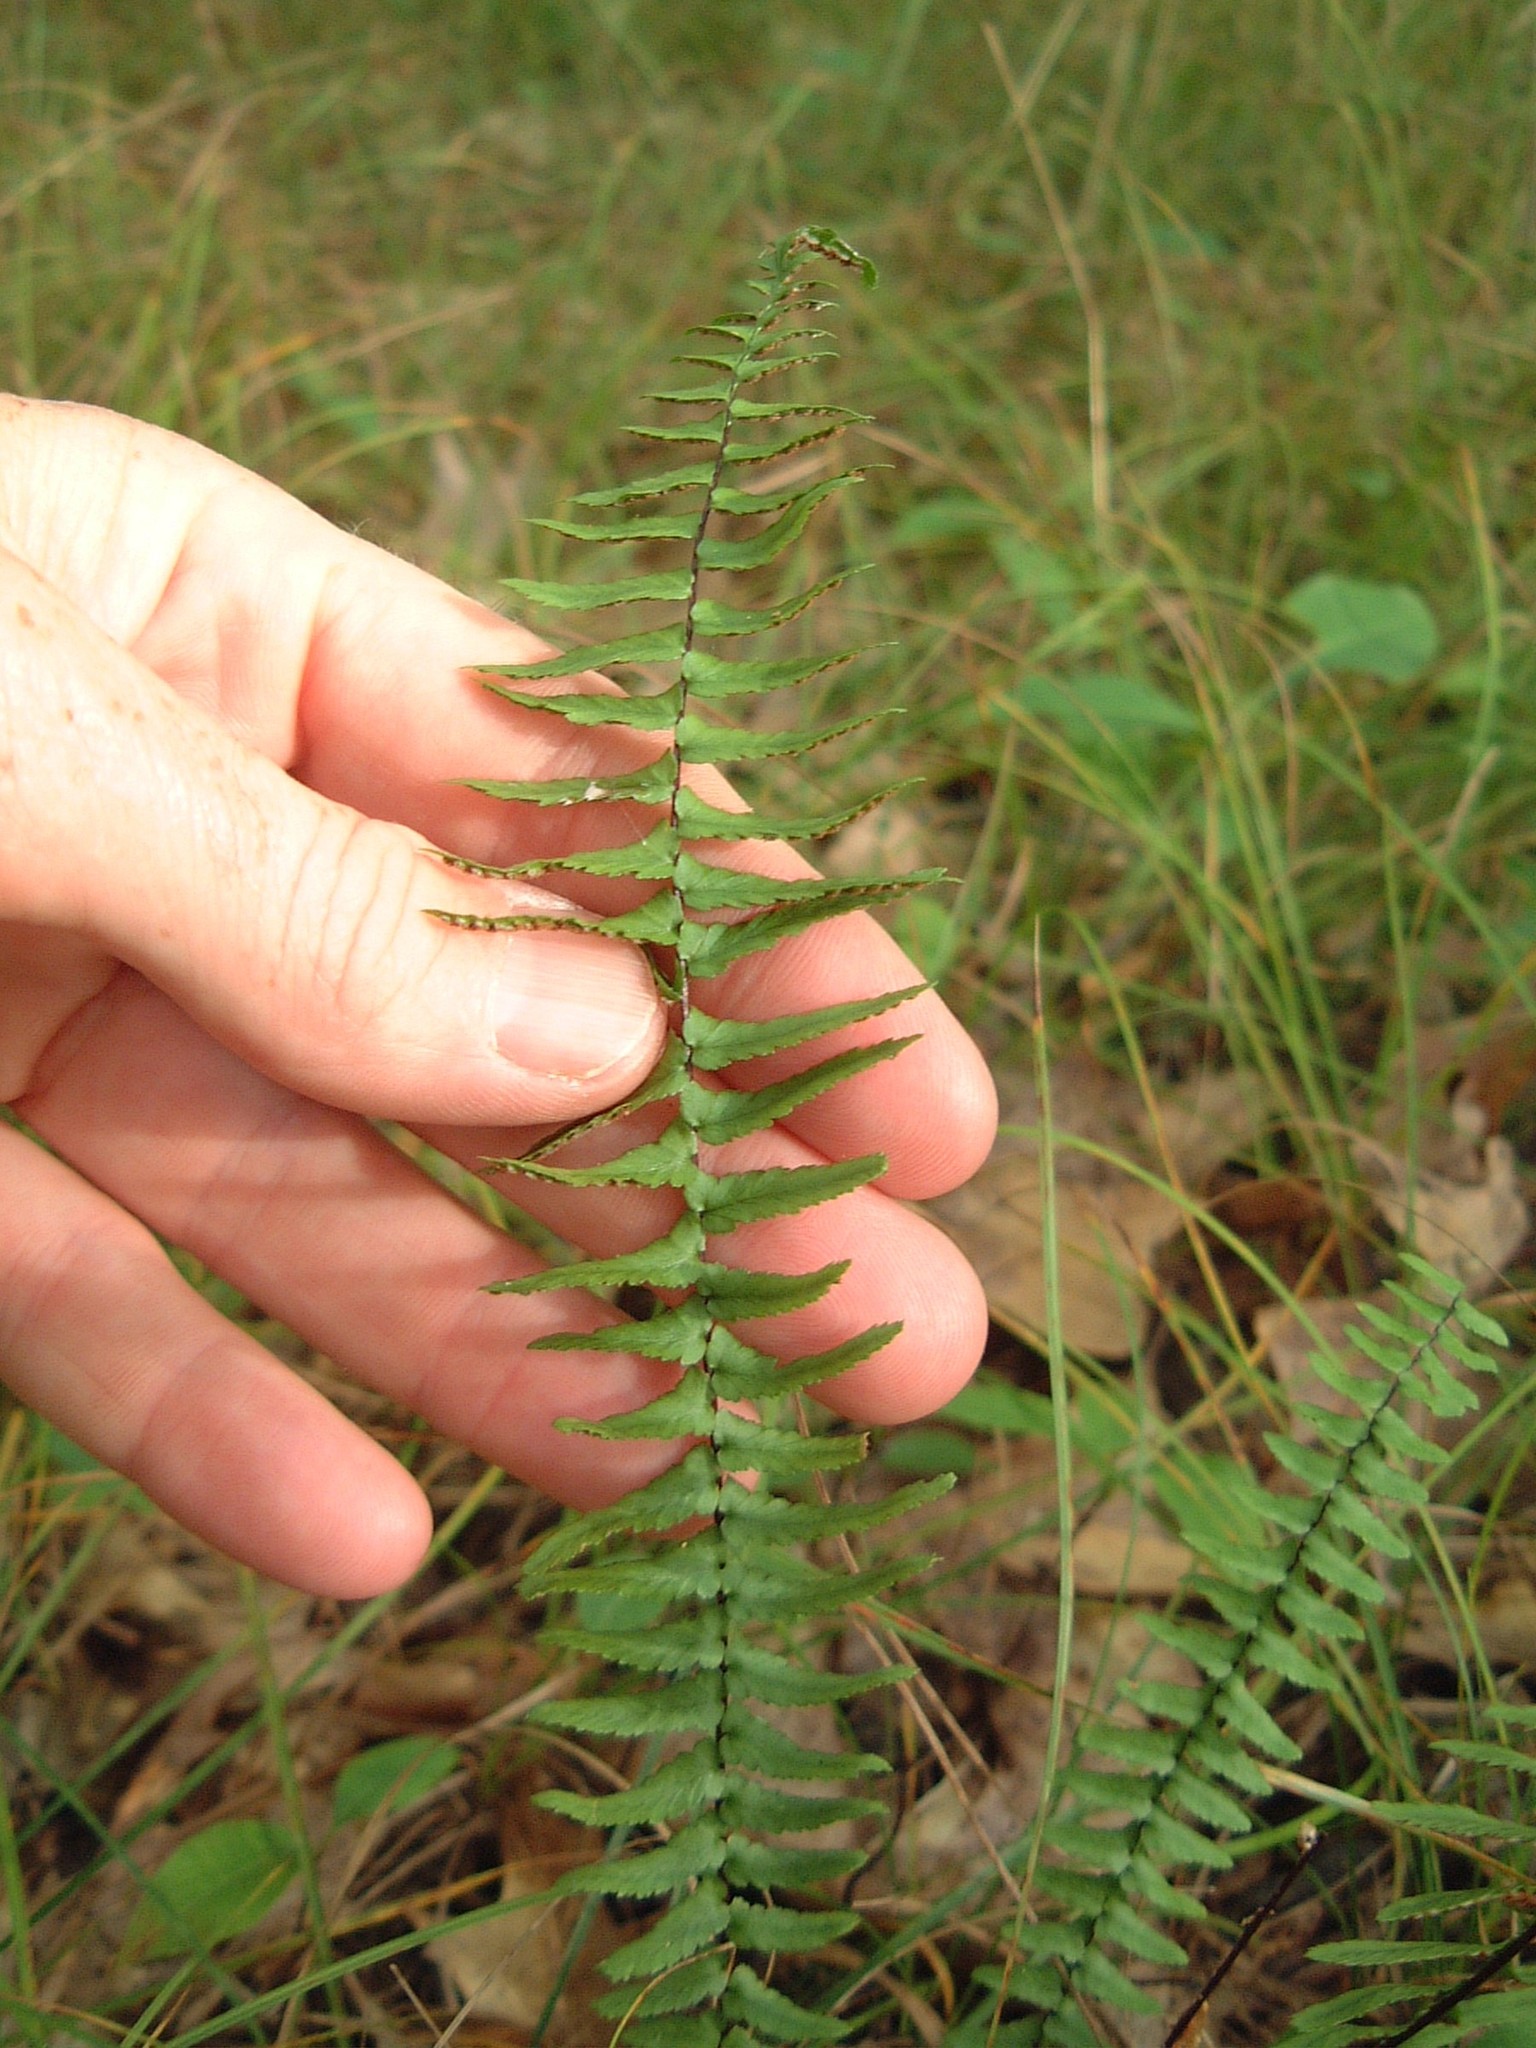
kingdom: Plantae
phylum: Tracheophyta
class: Polypodiopsida
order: Polypodiales
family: Aspleniaceae
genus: Asplenium
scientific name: Asplenium platyneuron
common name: Ebony spleenwort
